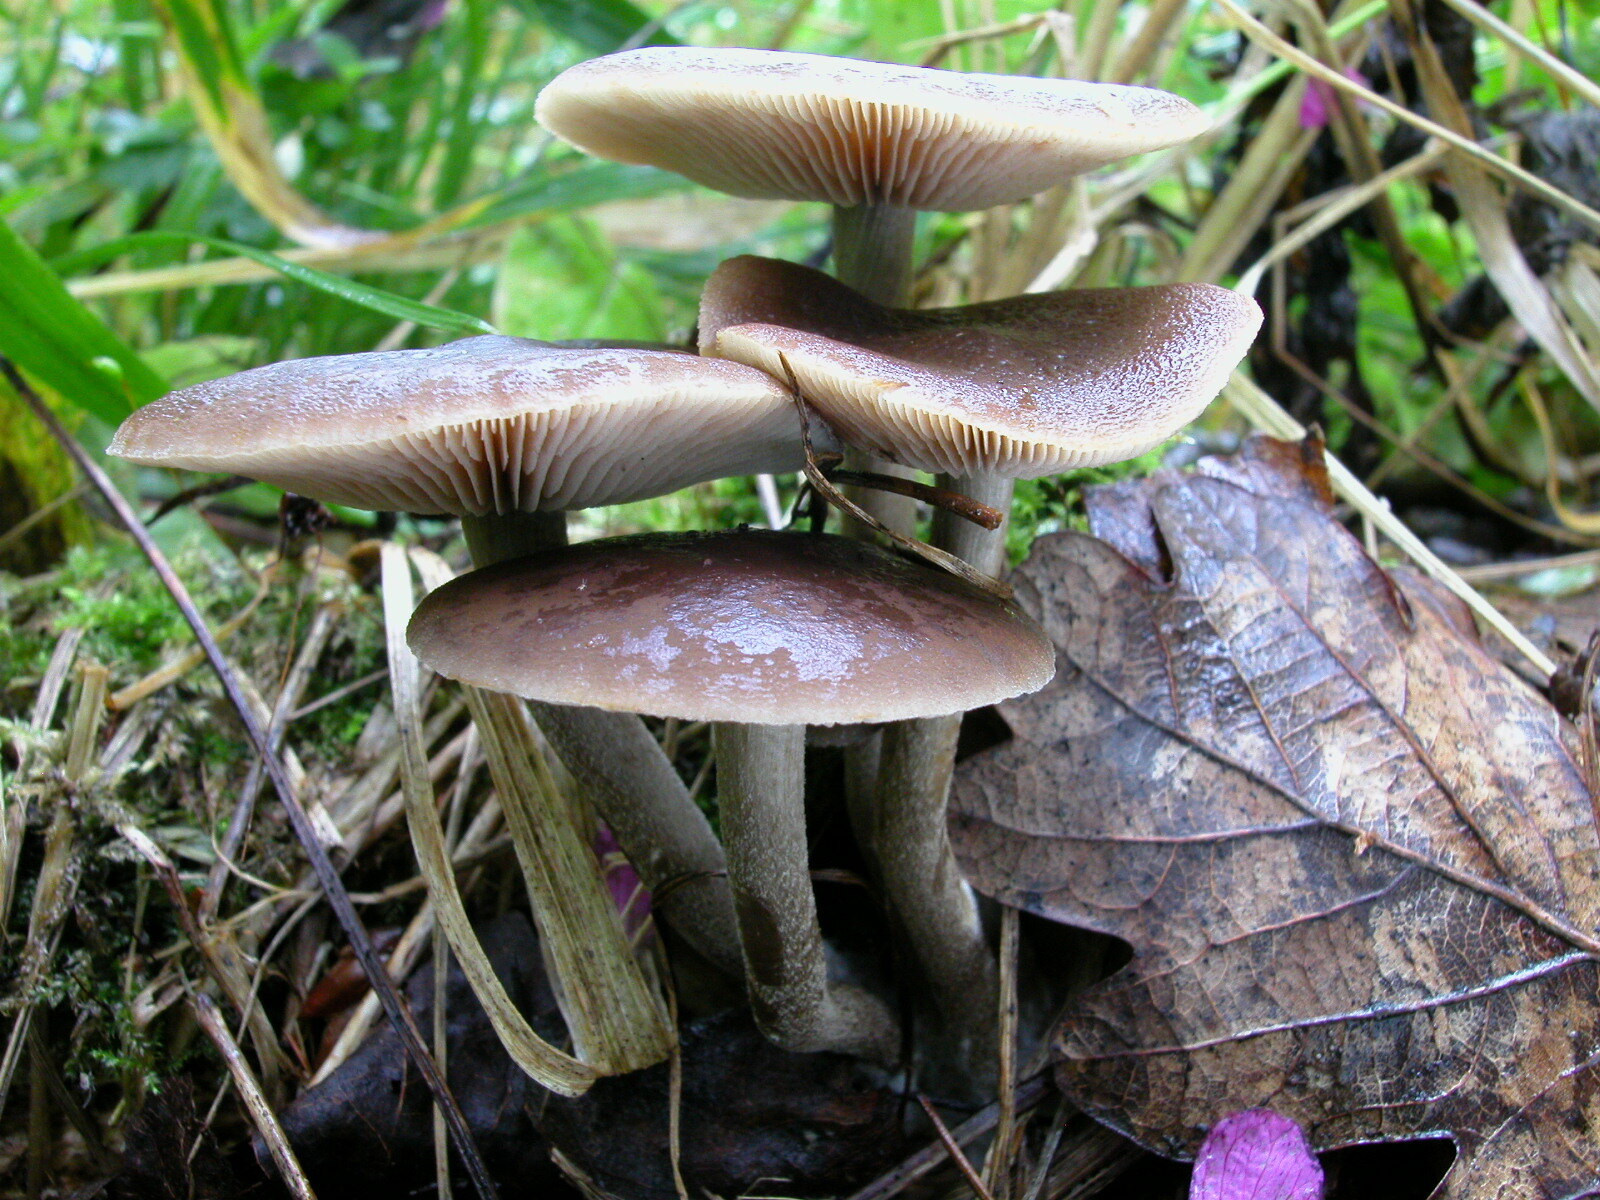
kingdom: Fungi
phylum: Basidiomycota
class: Agaricomycetes
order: Agaricales
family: Strophariaceae
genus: Agrocybe
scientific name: Agrocybe firma
